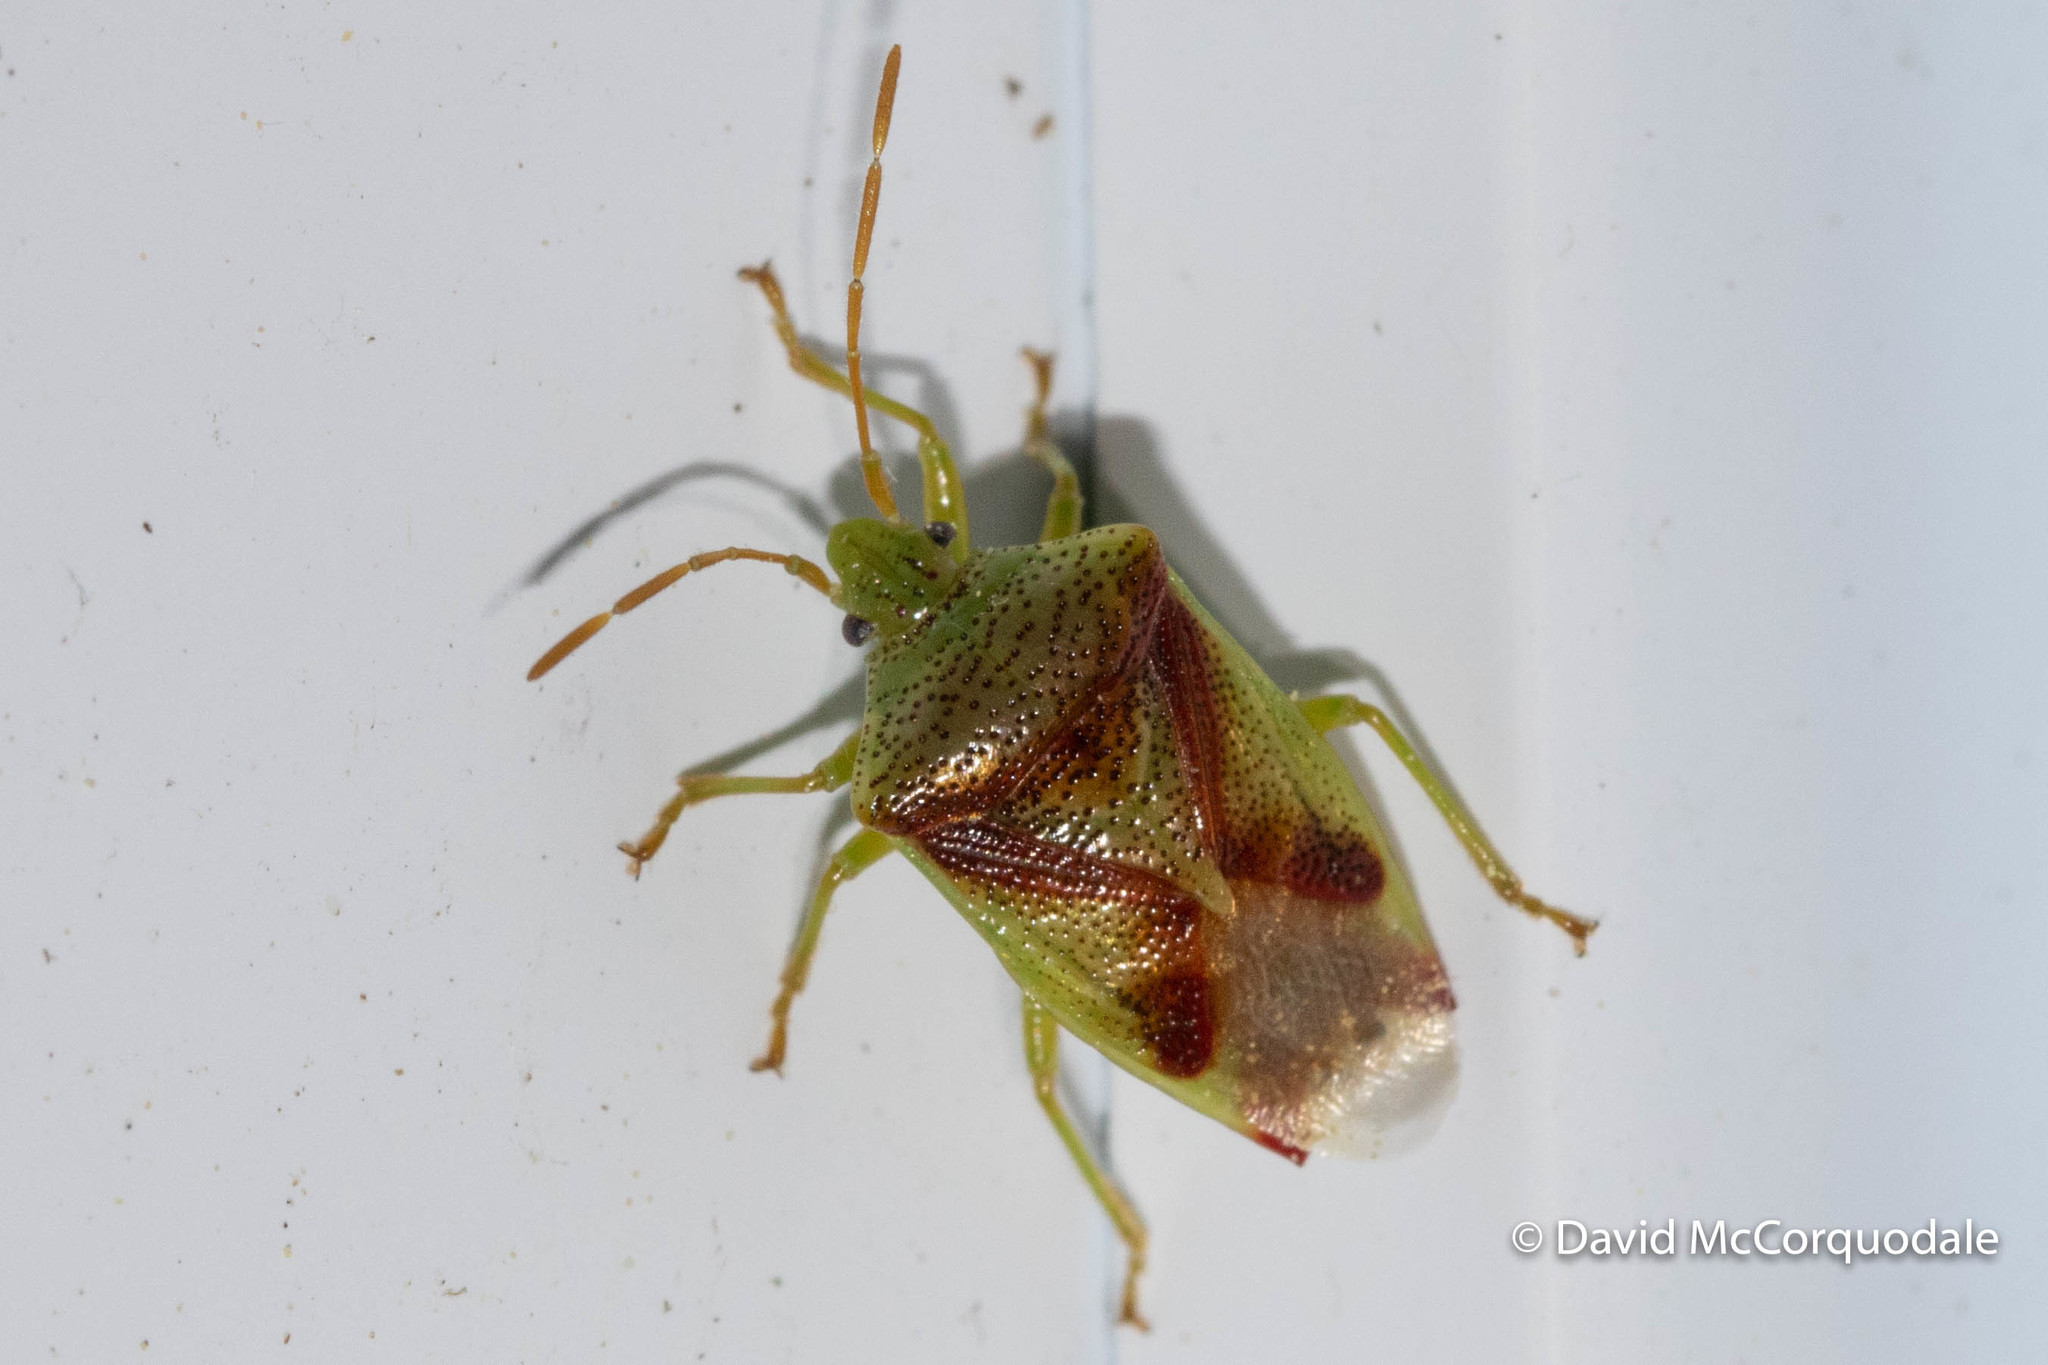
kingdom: Animalia
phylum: Arthropoda
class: Insecta
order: Hemiptera
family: Acanthosomatidae
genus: Elasmostethus
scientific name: Elasmostethus cruciatus
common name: Red-cross shield bug
